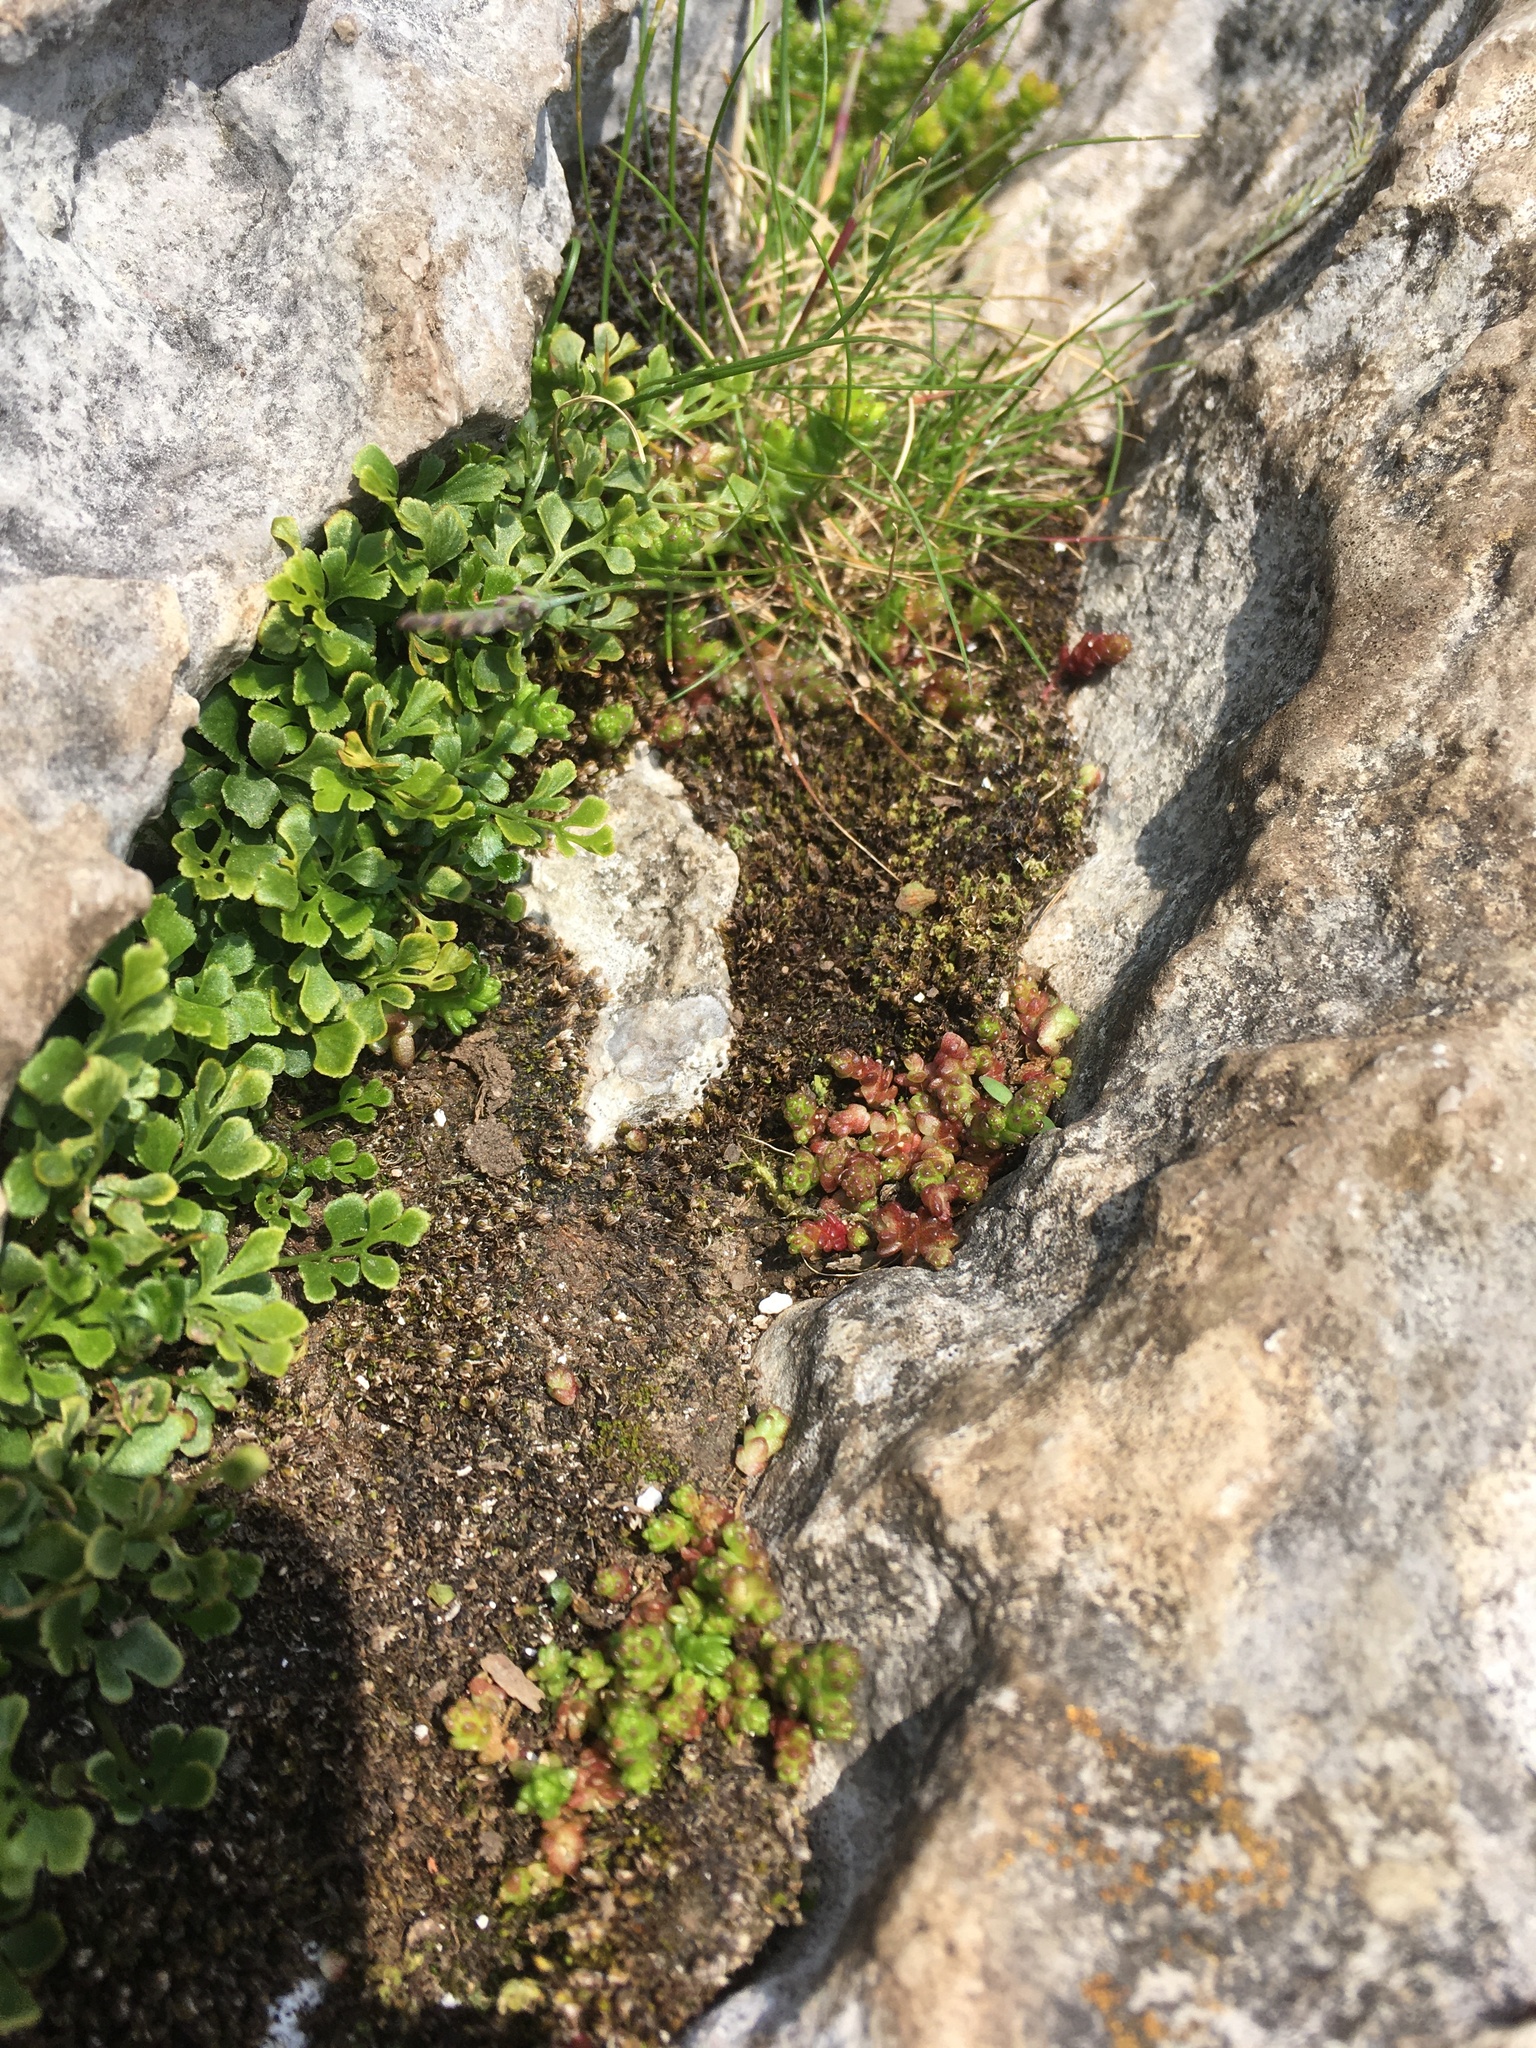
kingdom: Plantae
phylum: Tracheophyta
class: Magnoliopsida
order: Saxifragales
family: Crassulaceae
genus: Sedum
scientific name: Sedum acre
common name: Biting stonecrop
